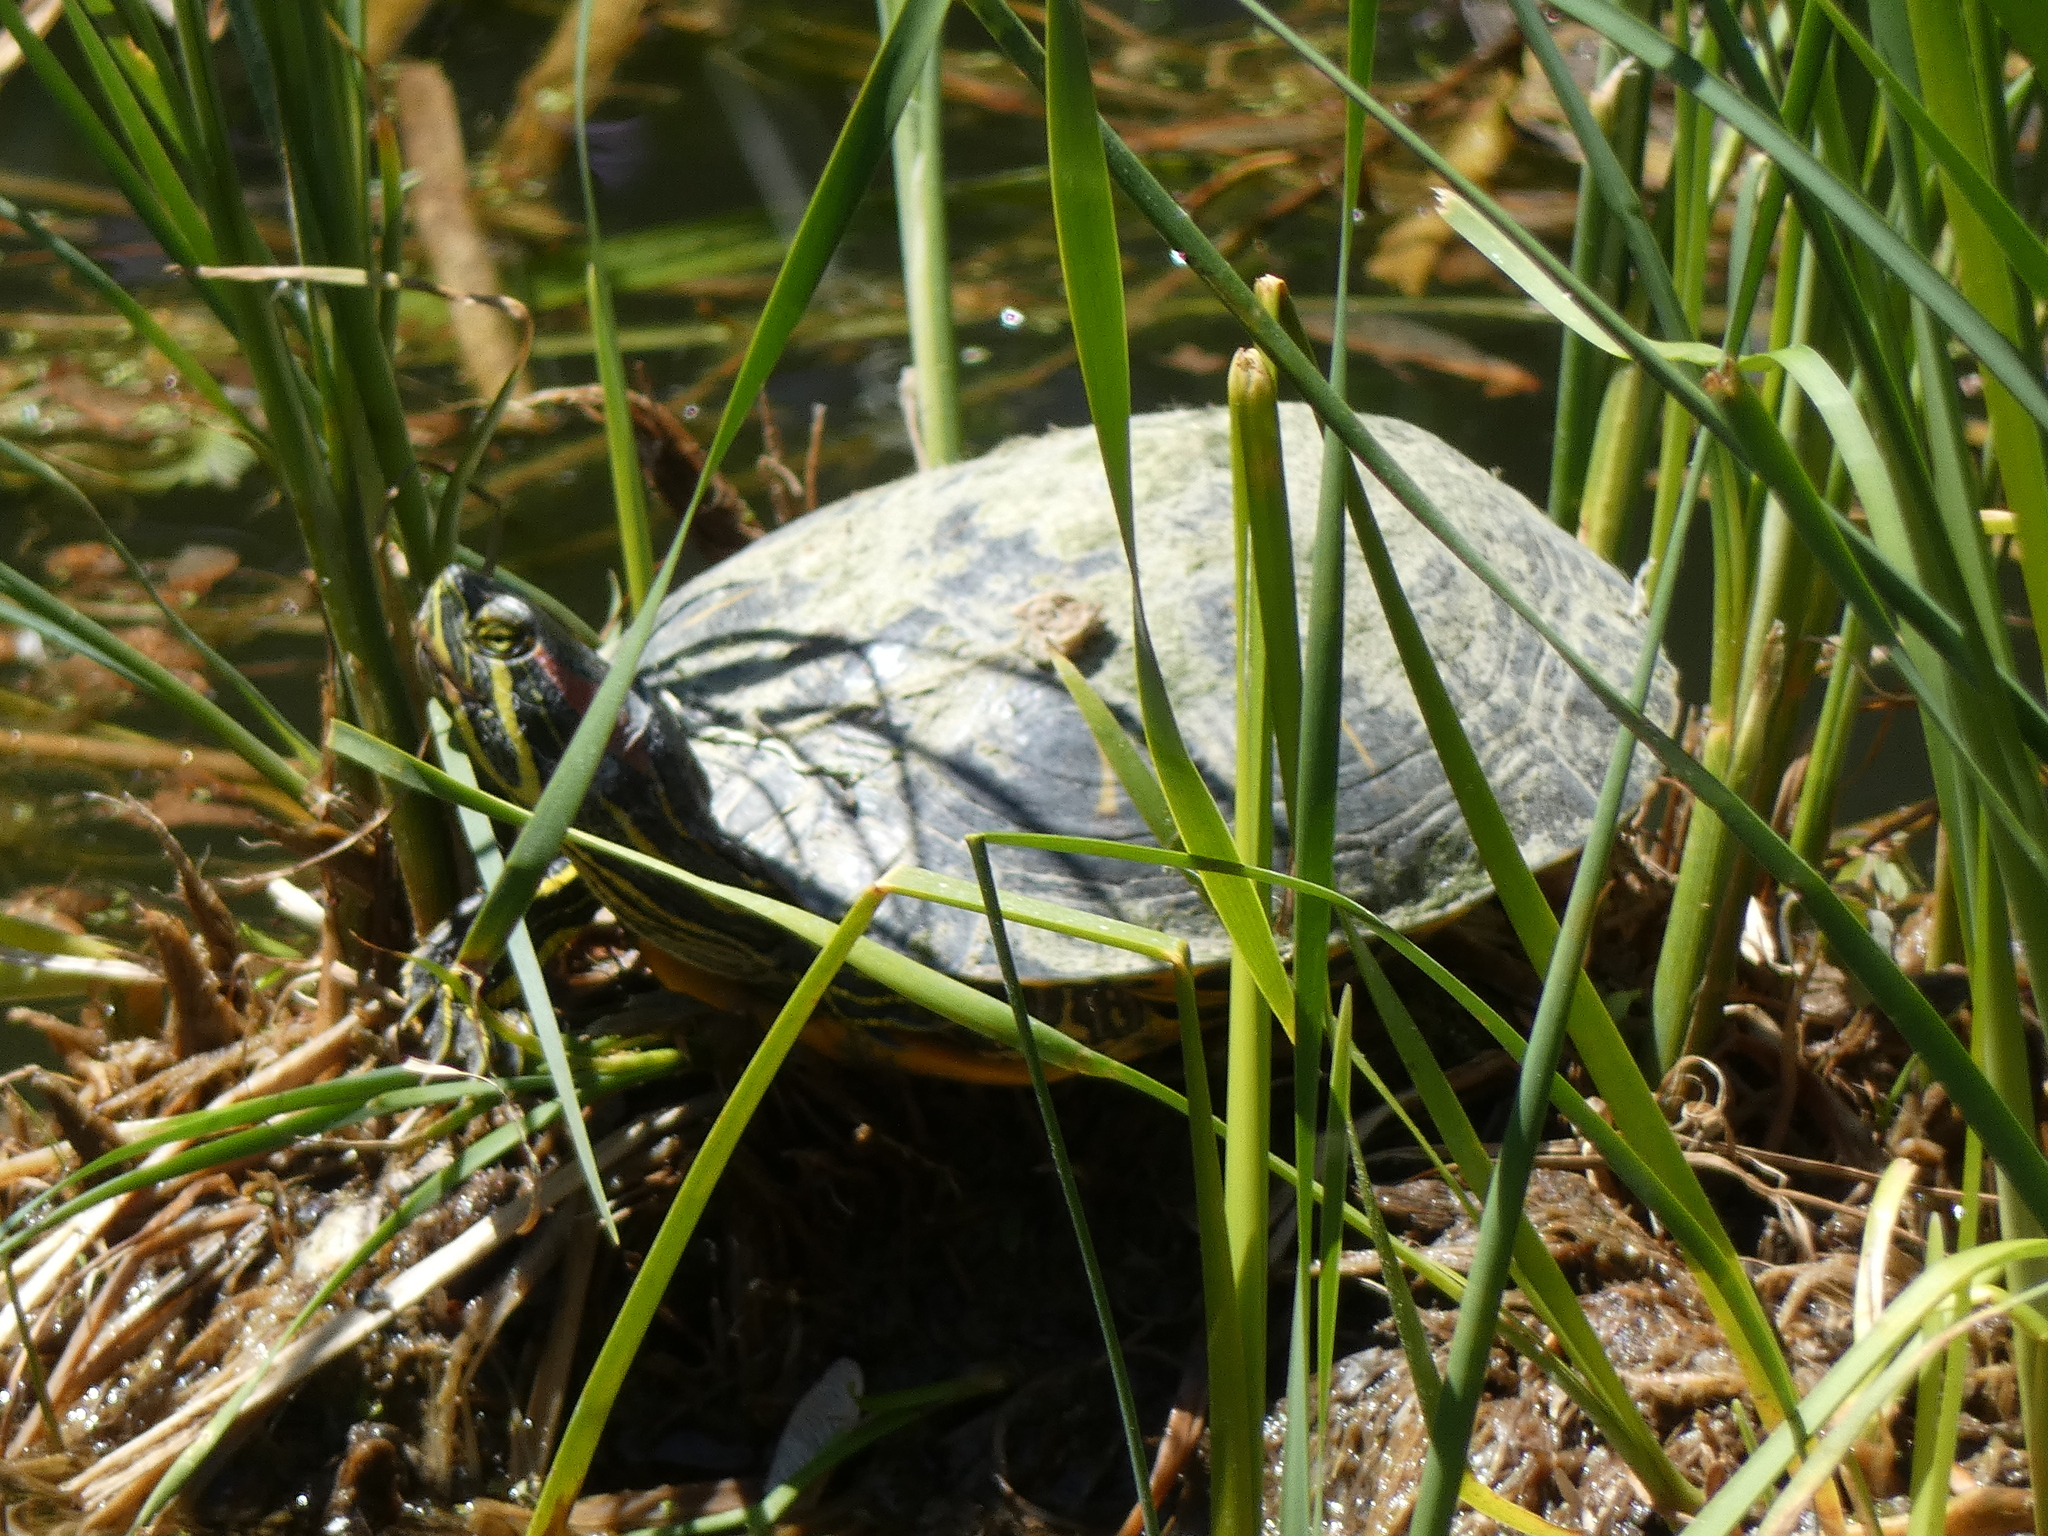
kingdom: Animalia
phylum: Chordata
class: Testudines
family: Emydidae
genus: Trachemys
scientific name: Trachemys scripta
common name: Slider
